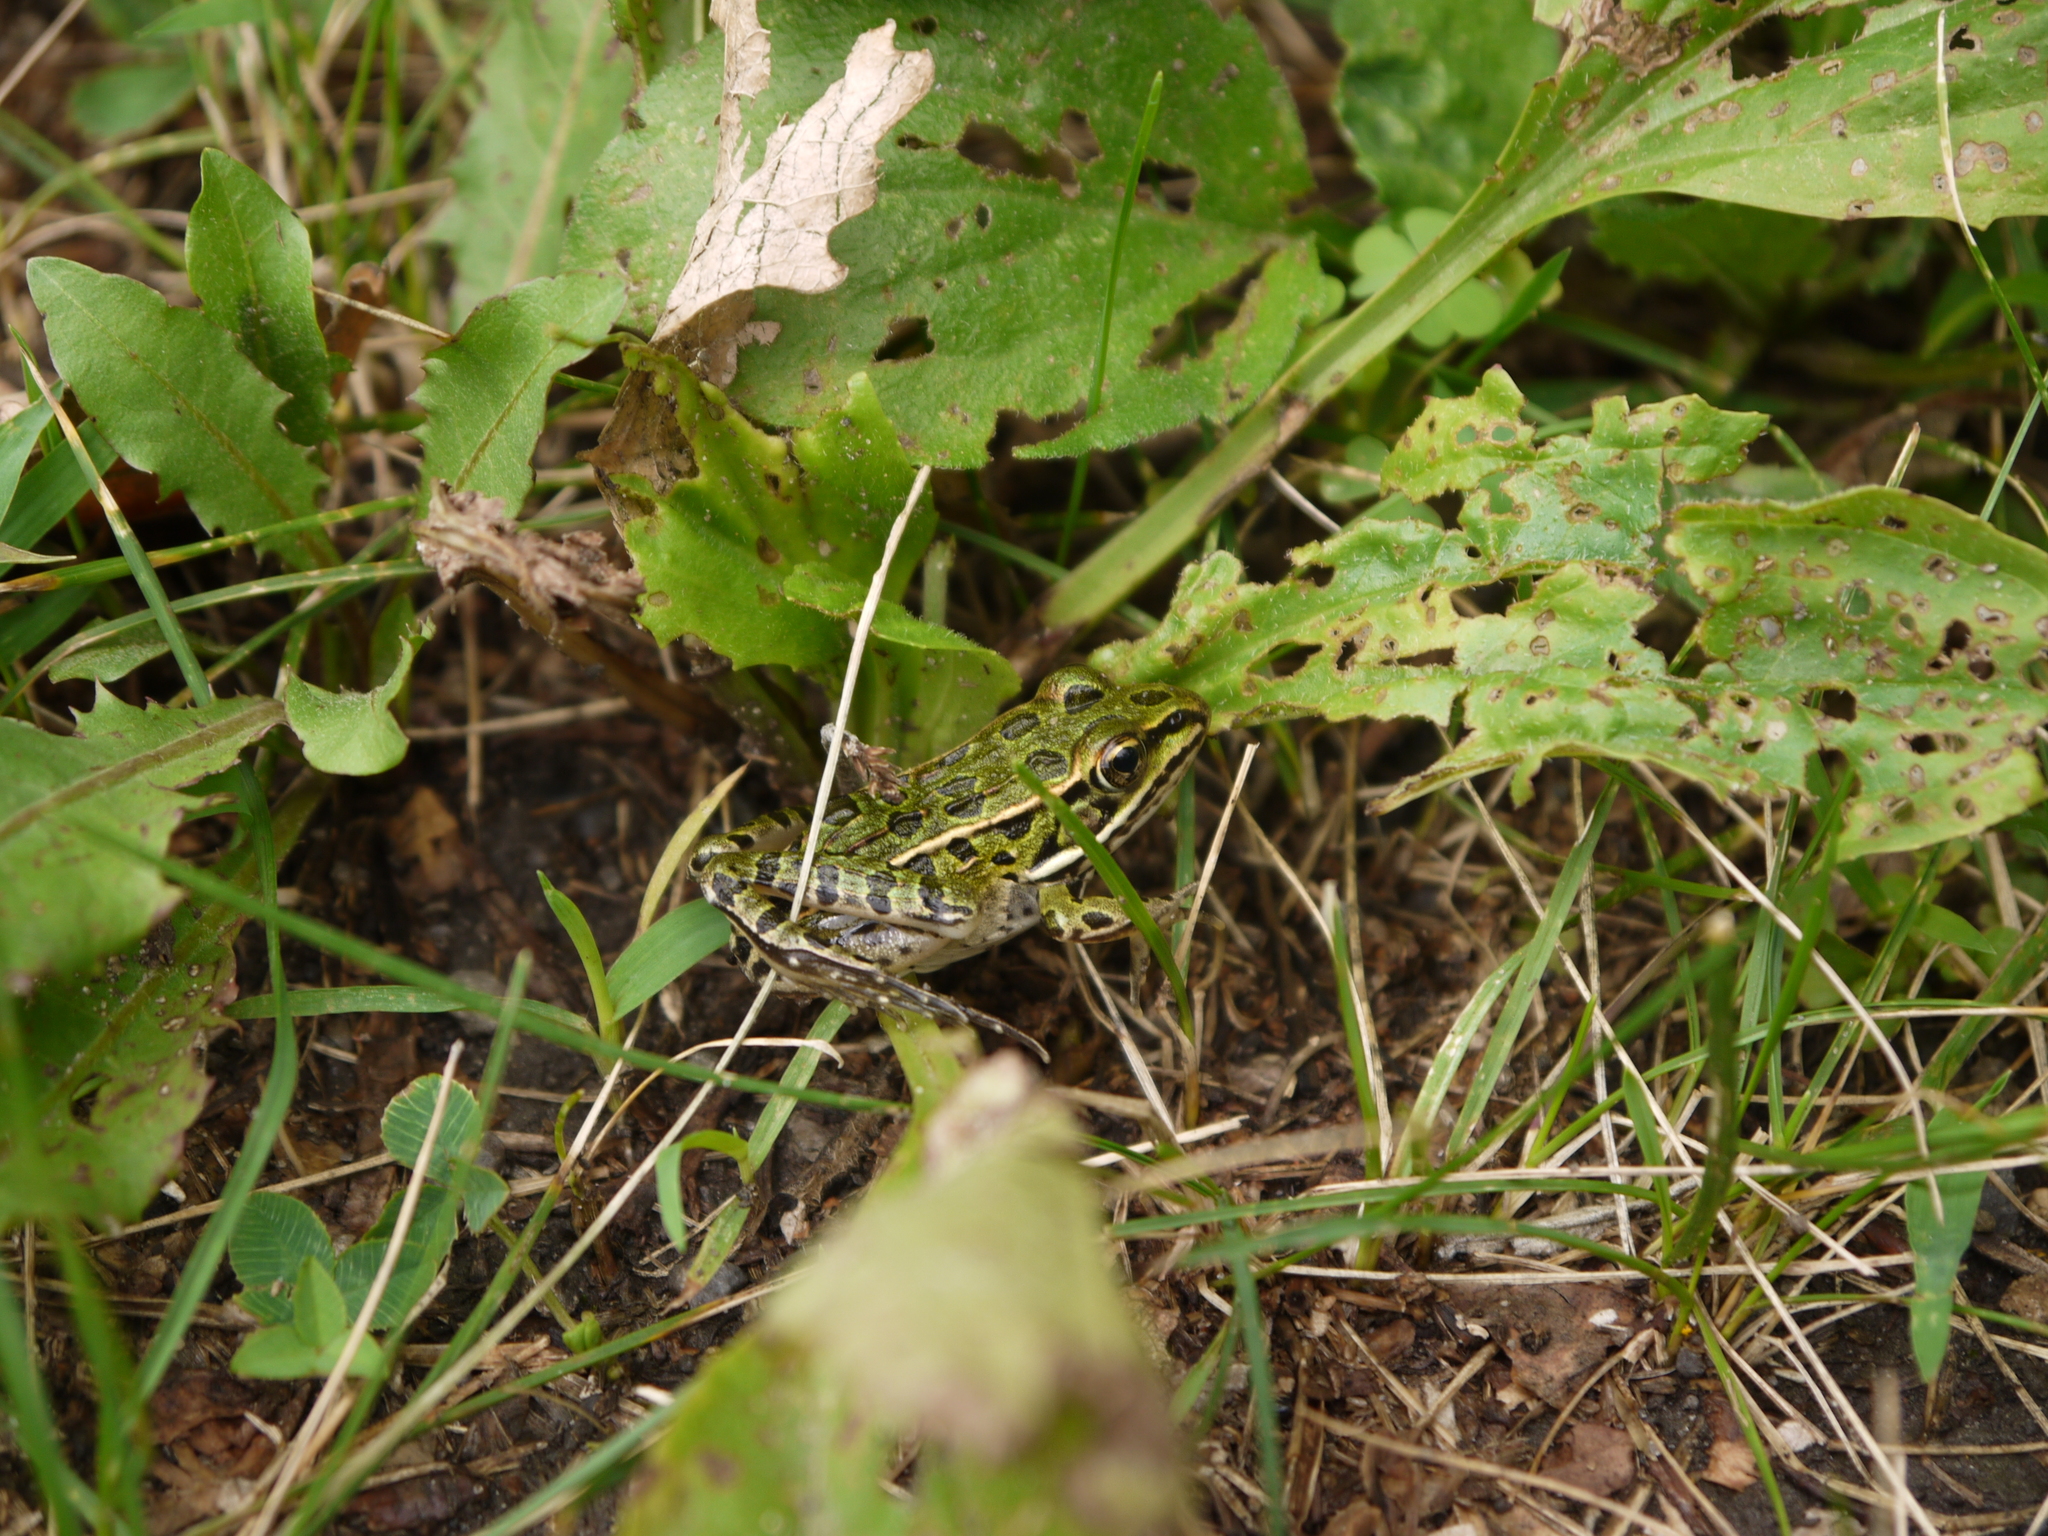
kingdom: Animalia
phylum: Chordata
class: Amphibia
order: Anura
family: Ranidae
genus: Lithobates
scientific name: Lithobates pipiens
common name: Northern leopard frog
